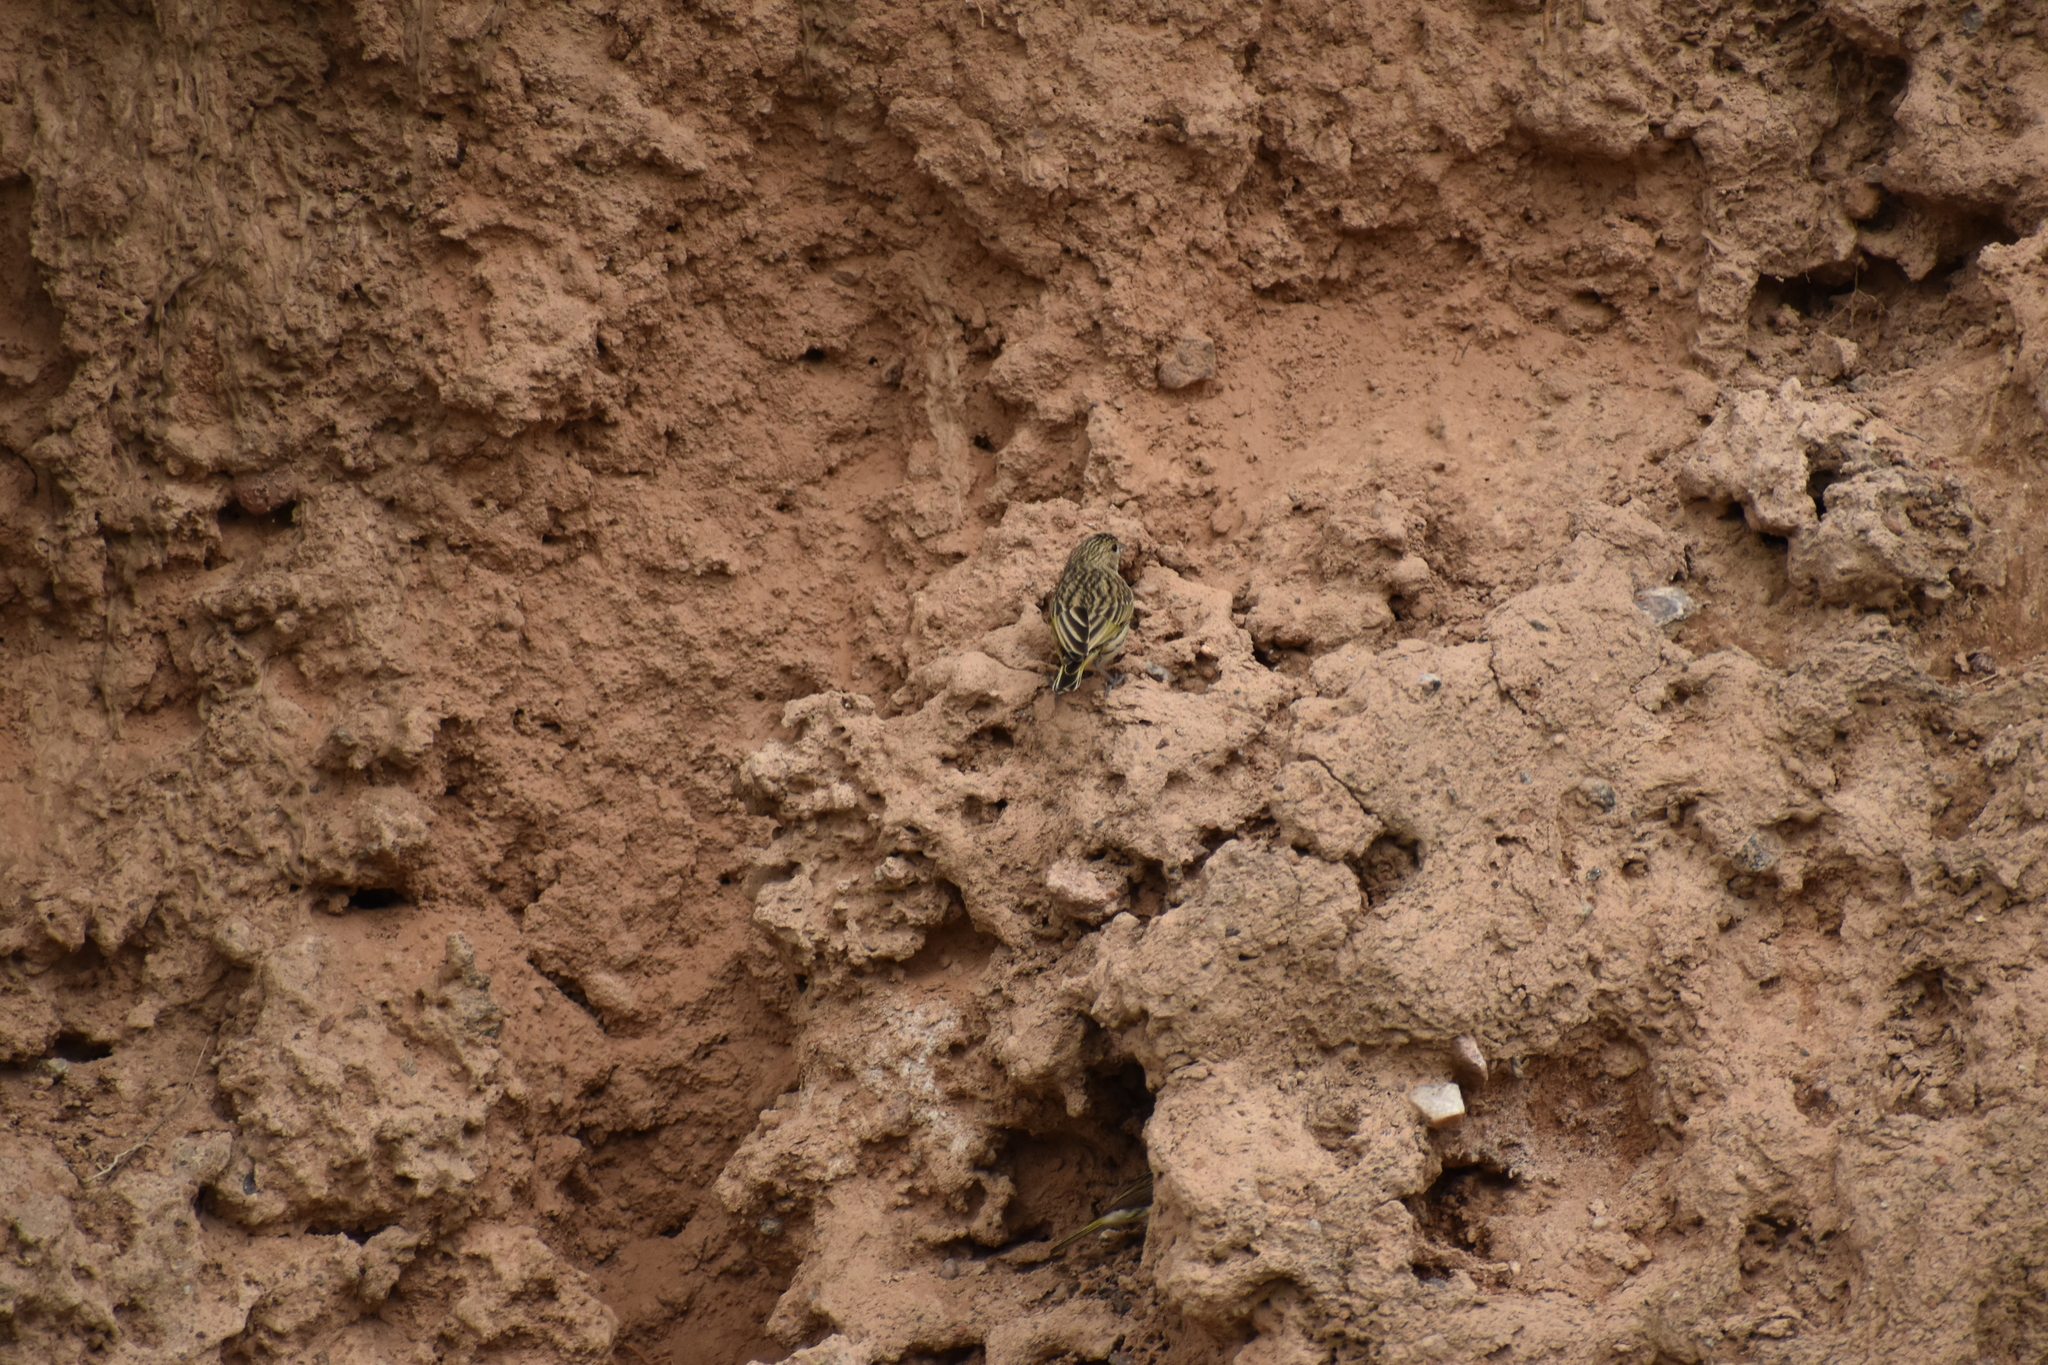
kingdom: Animalia
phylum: Chordata
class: Aves
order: Passeriformes
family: Thraupidae
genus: Sicalis
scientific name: Sicalis flaveola
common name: Saffron finch
